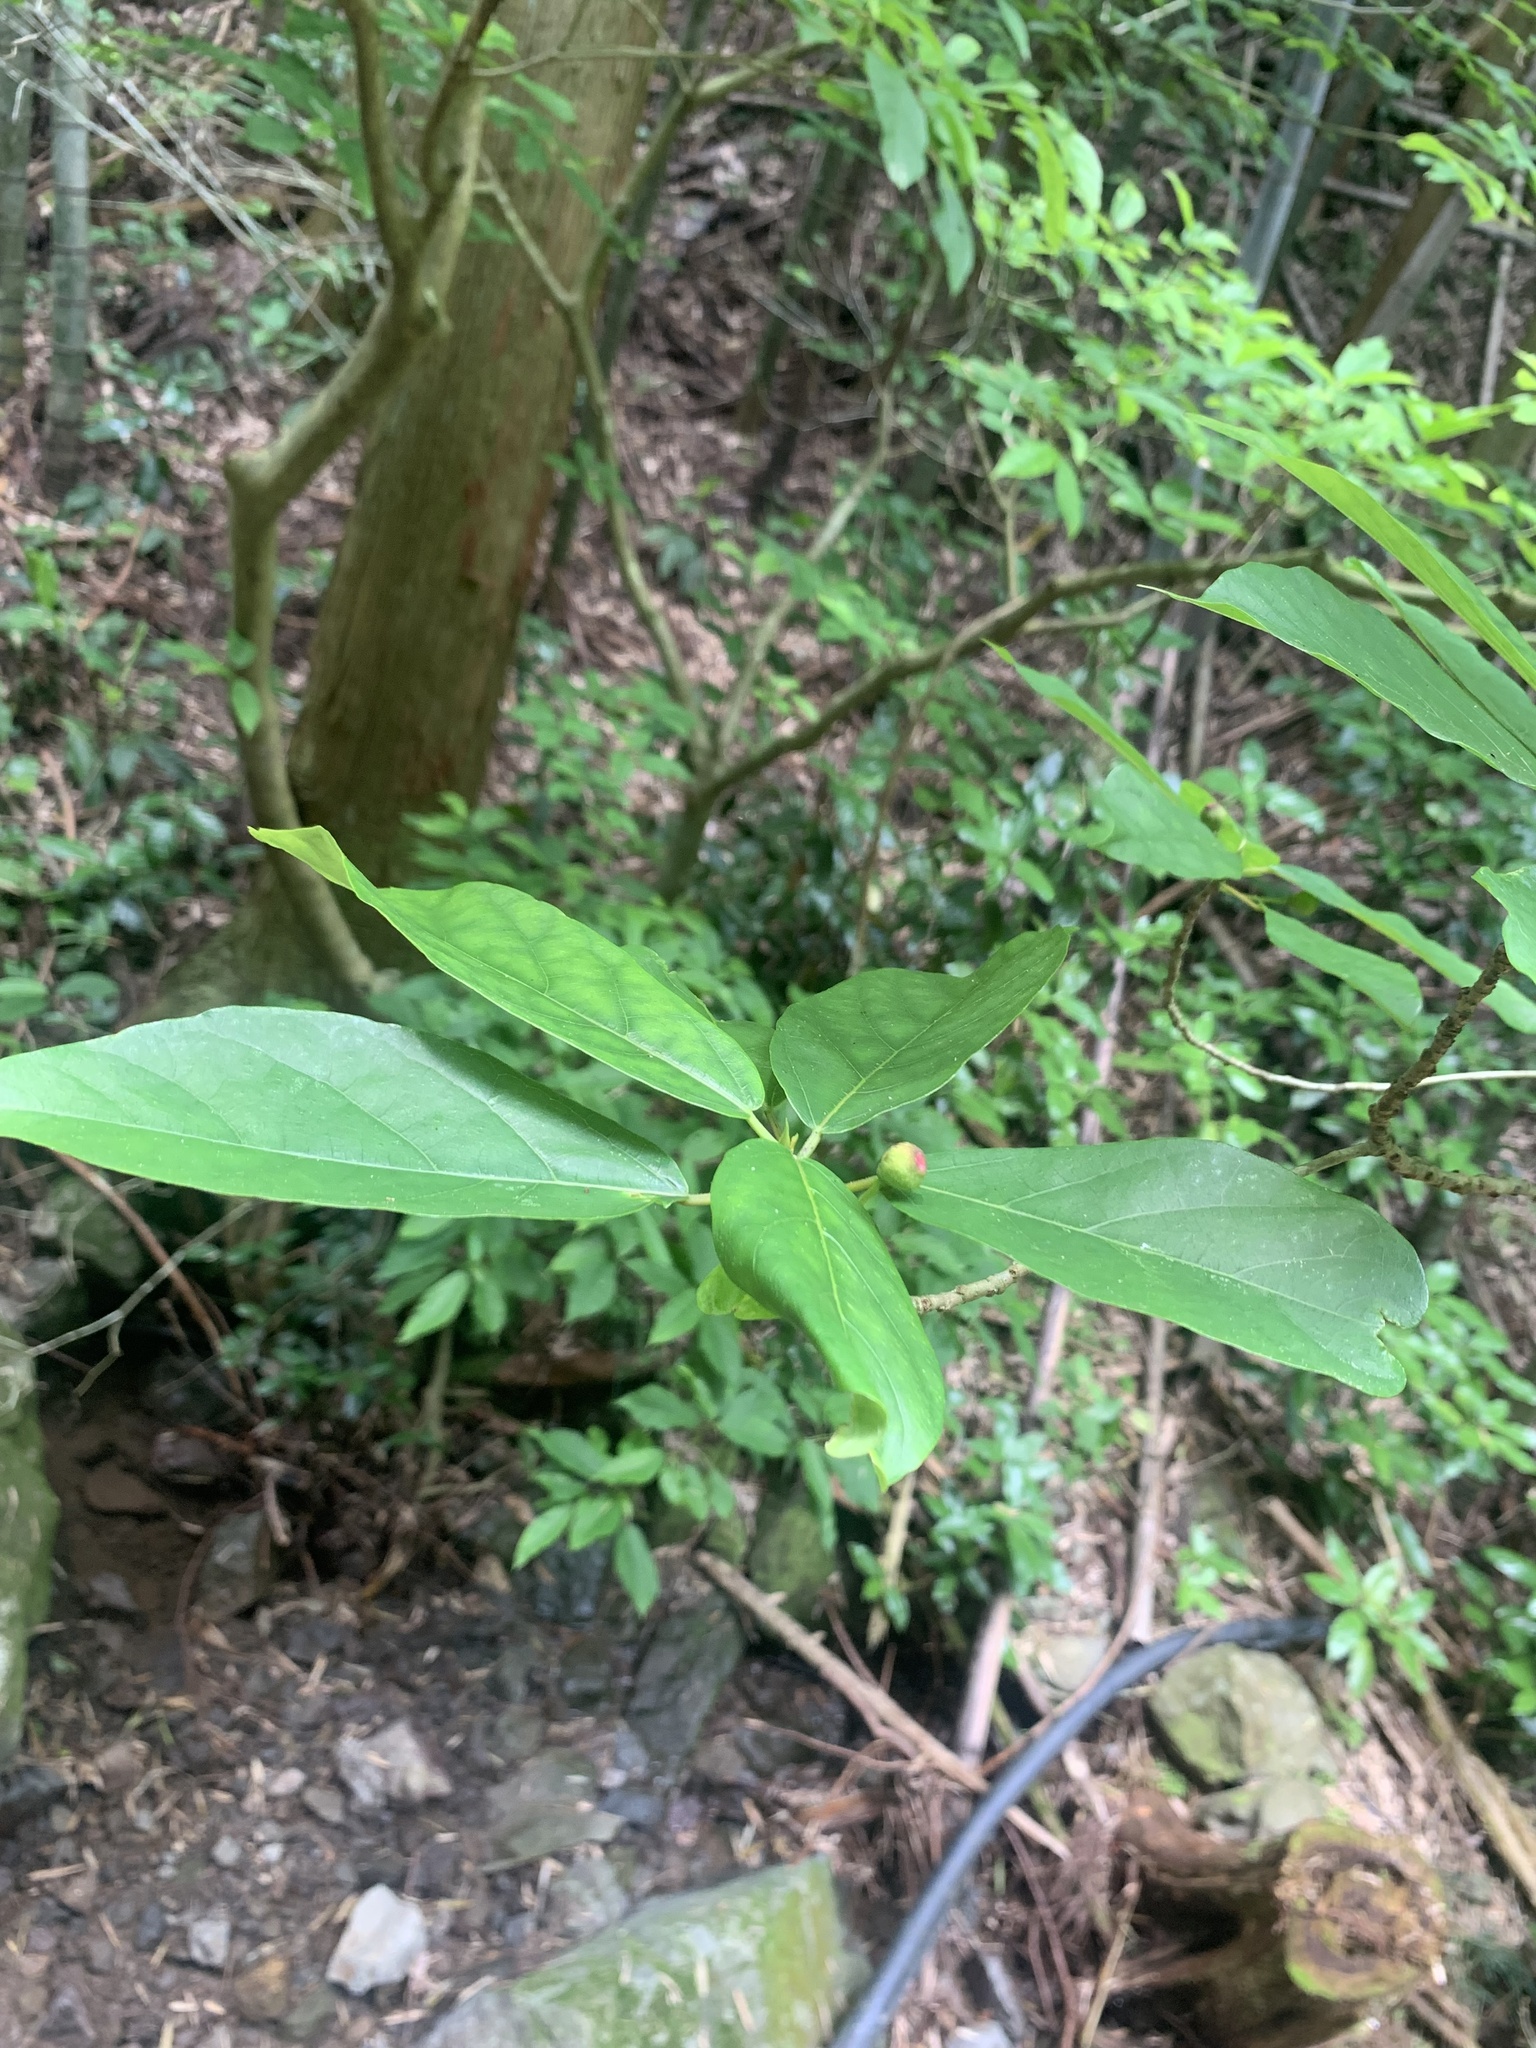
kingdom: Plantae
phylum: Tracheophyta
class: Magnoliopsida
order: Rosales
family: Moraceae
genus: Ficus
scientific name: Ficus erecta
